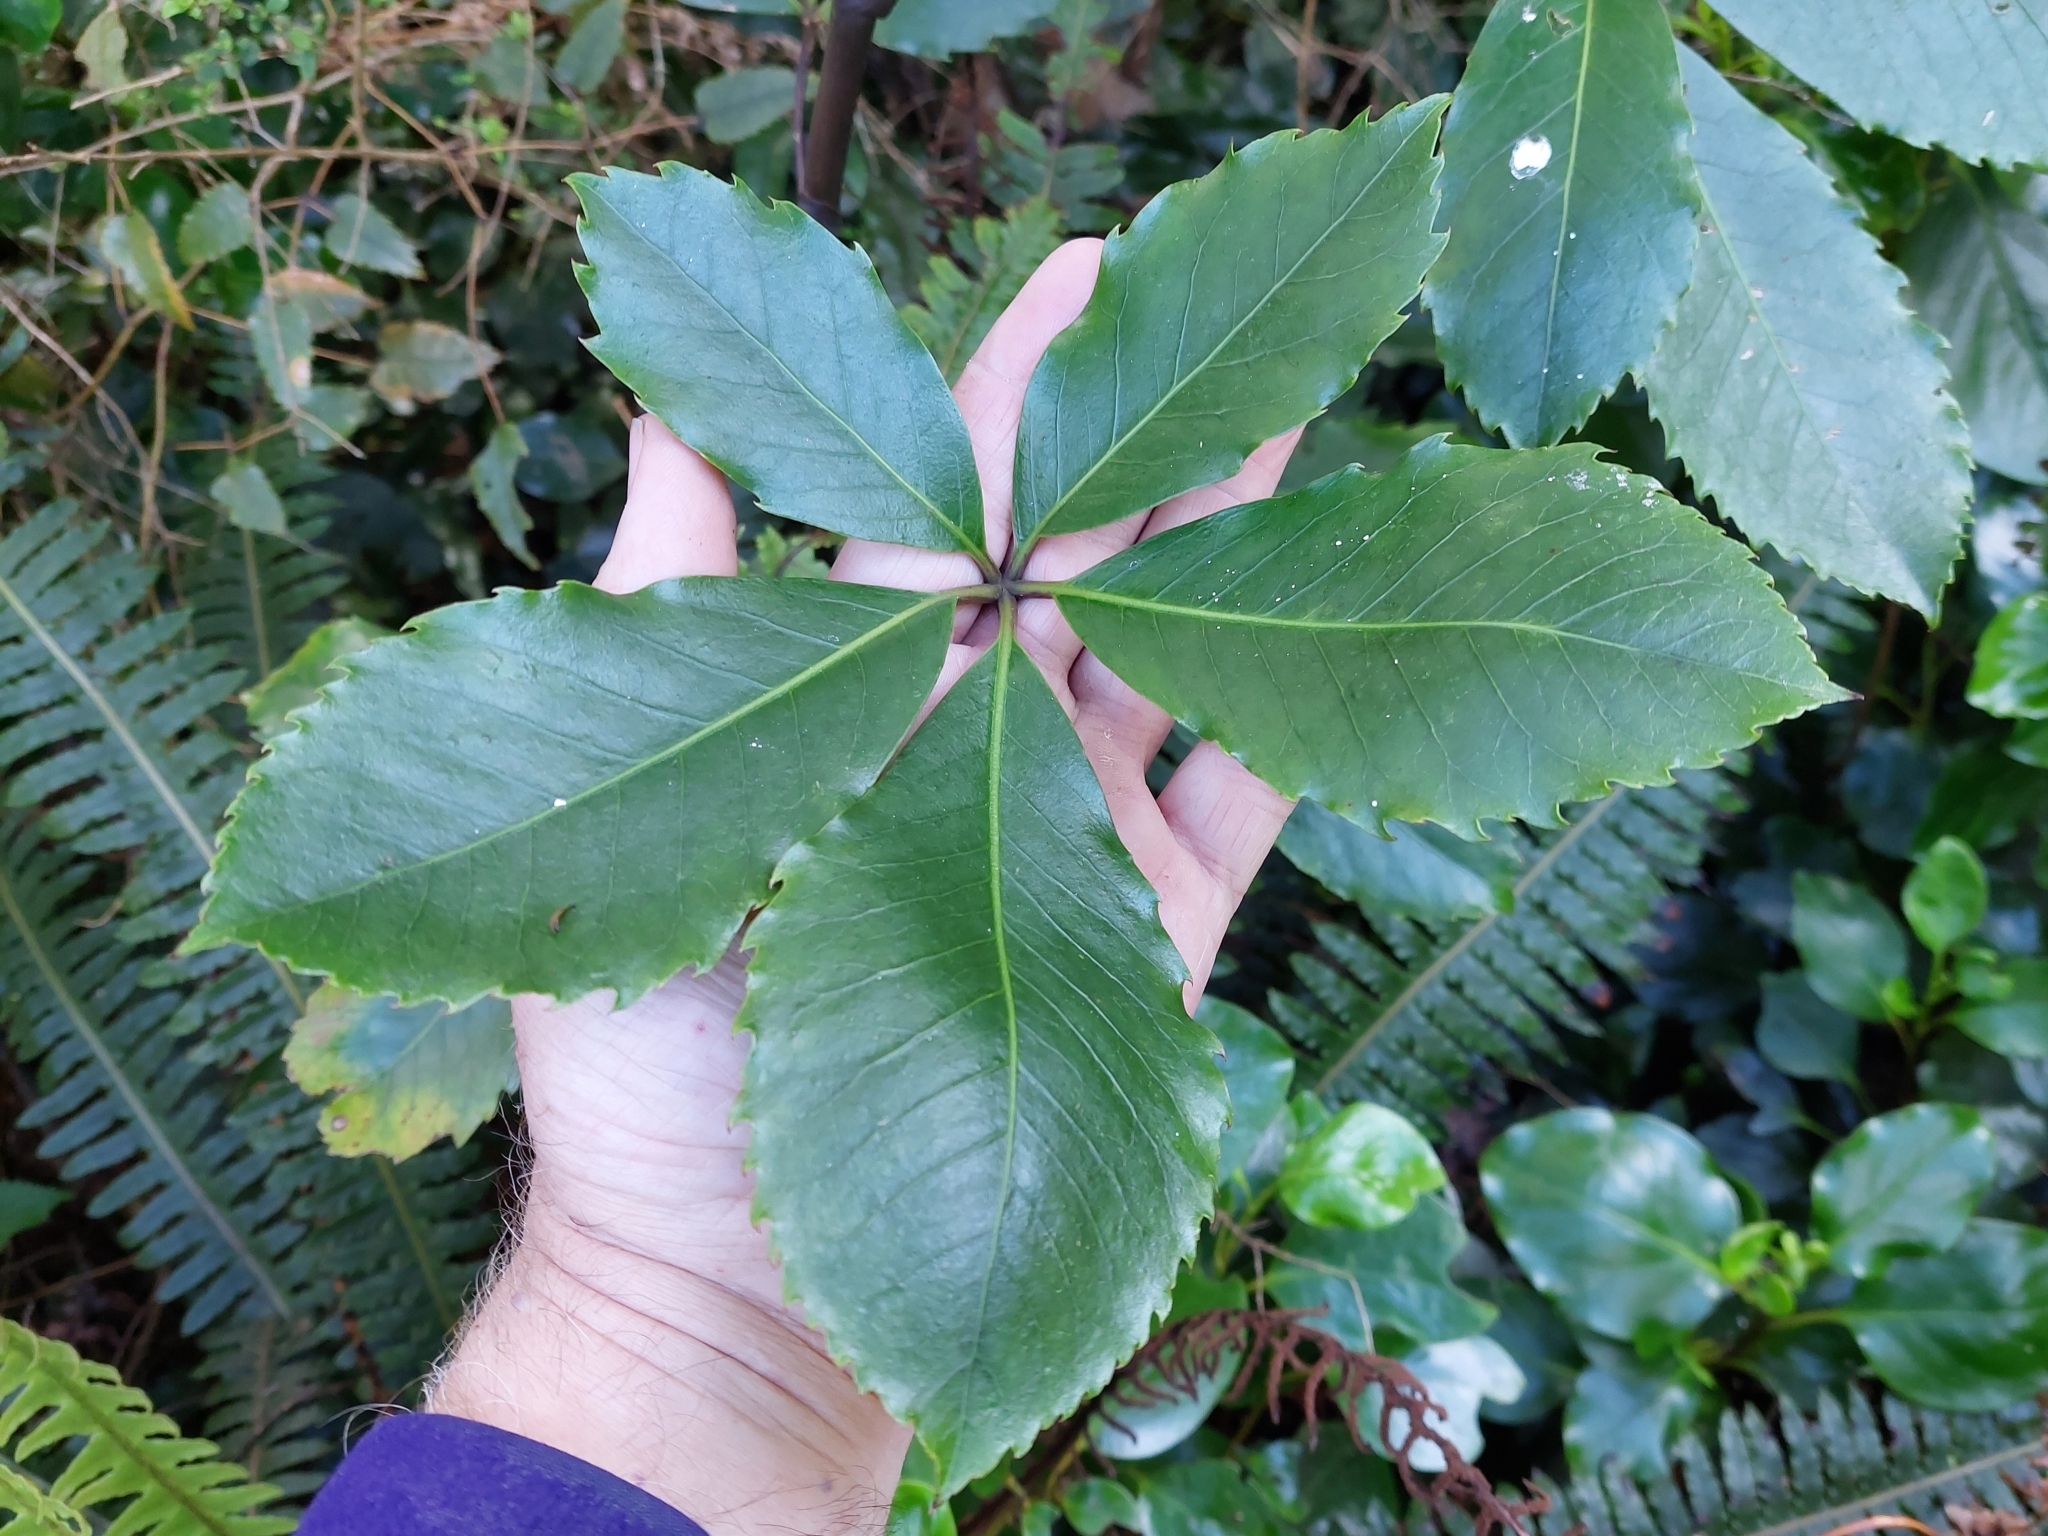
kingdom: Plantae
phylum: Tracheophyta
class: Magnoliopsida
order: Apiales
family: Araliaceae
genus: Neopanax
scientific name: Neopanax arboreus
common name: Five-fingers
